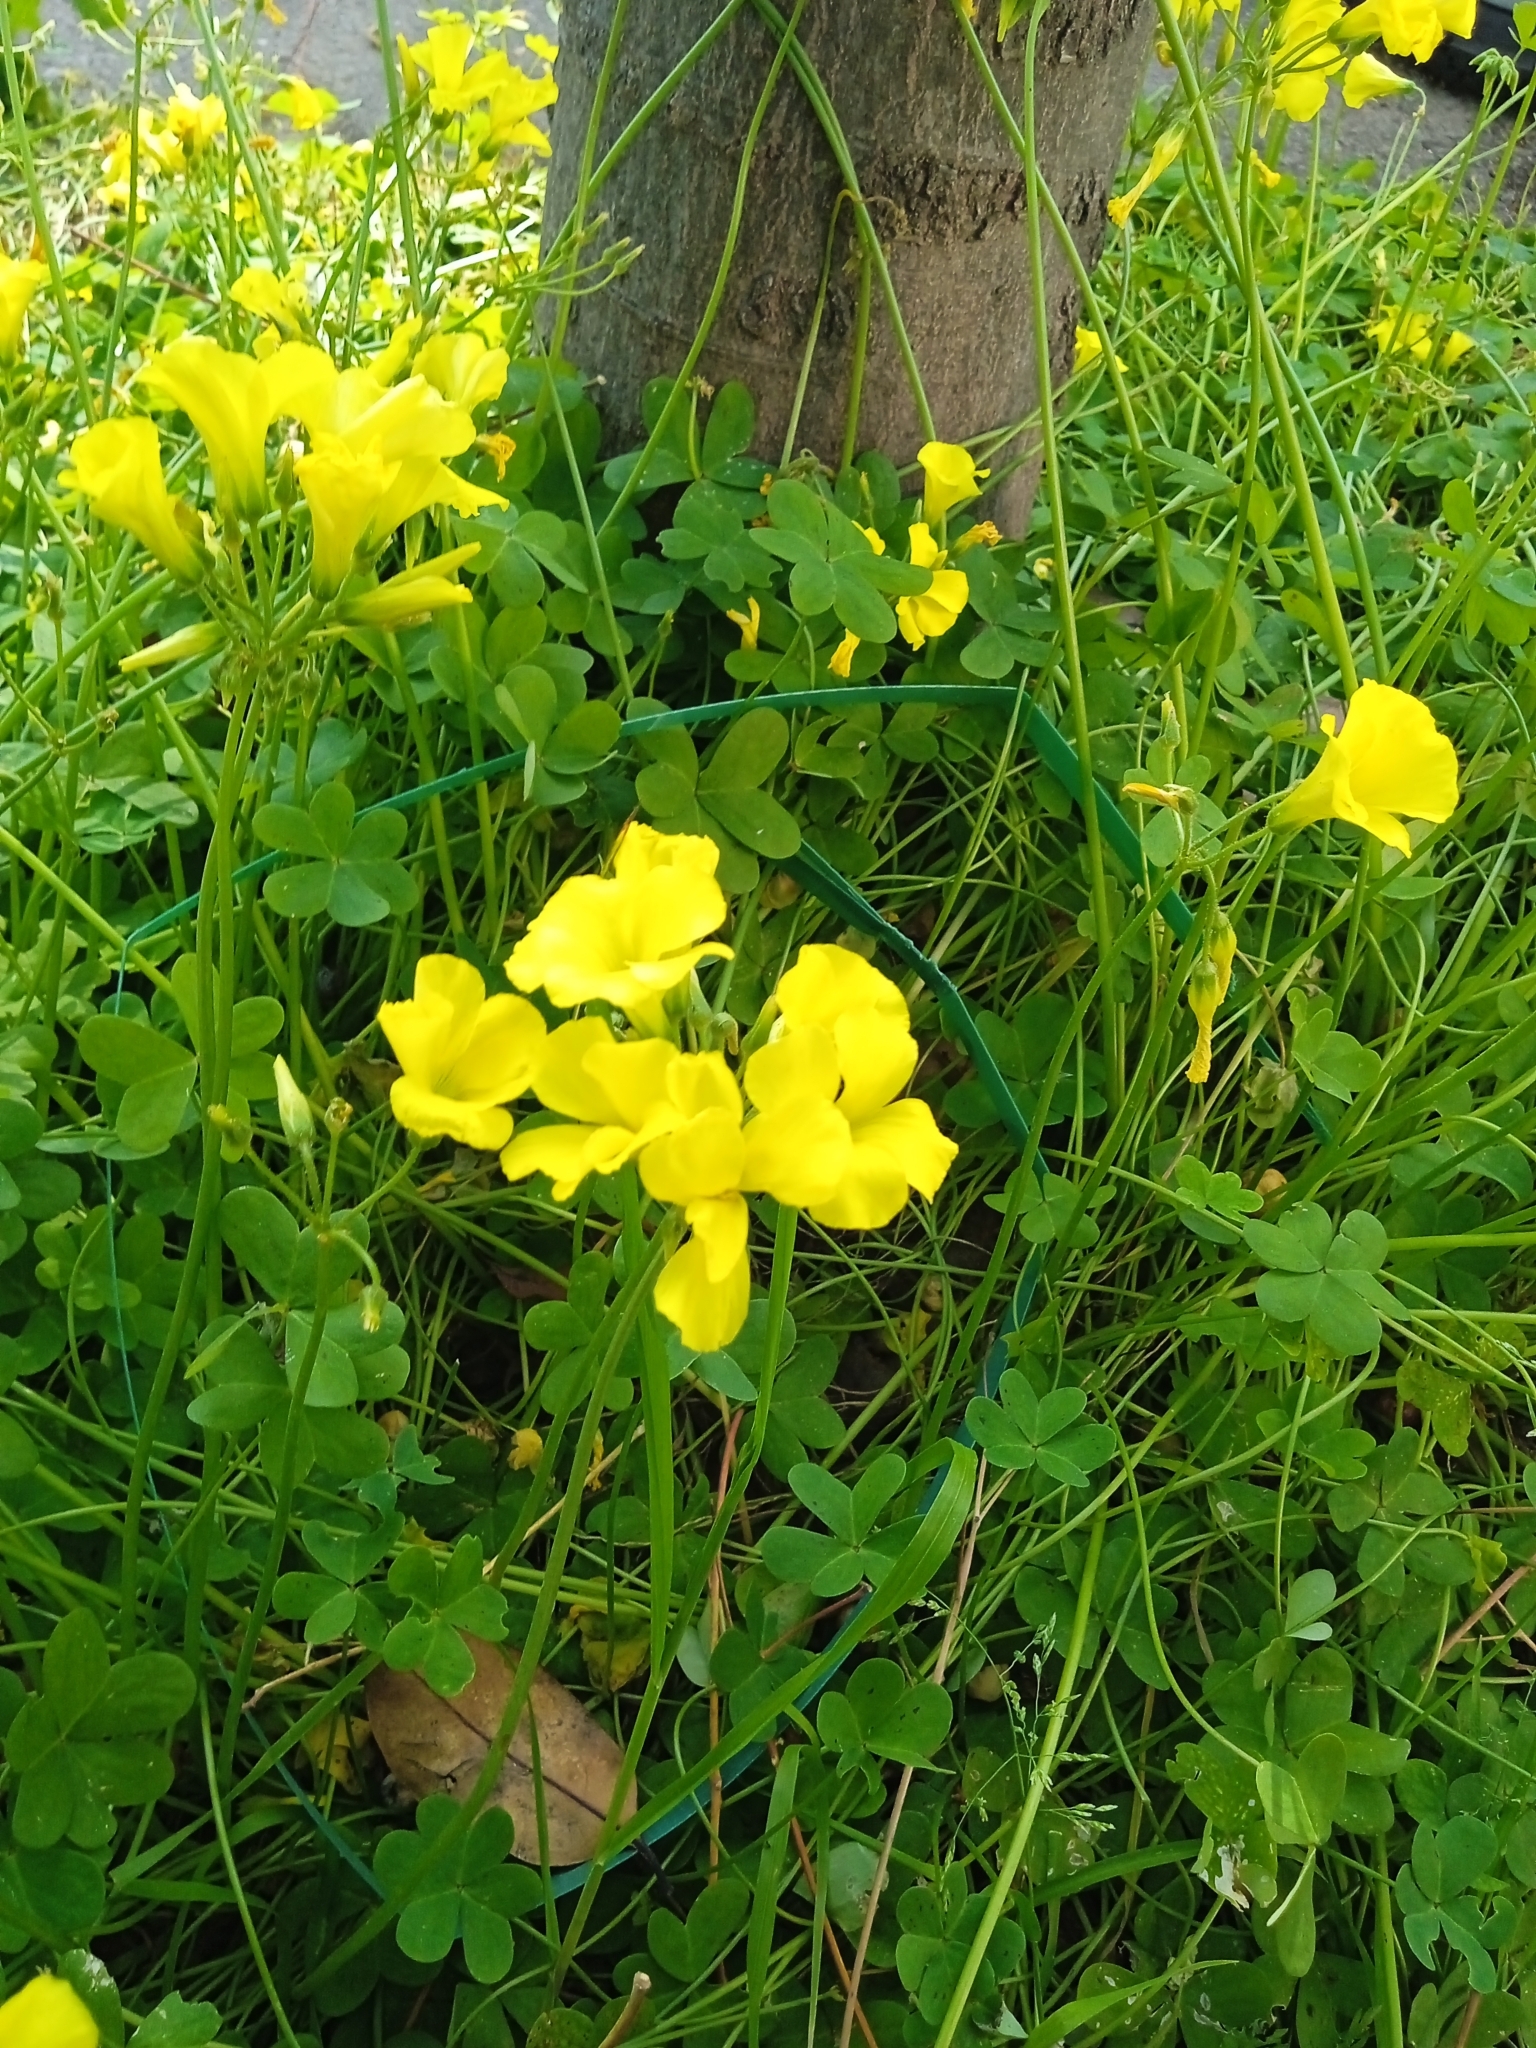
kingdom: Plantae
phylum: Tracheophyta
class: Magnoliopsida
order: Oxalidales
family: Oxalidaceae
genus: Oxalis
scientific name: Oxalis pes-caprae
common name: Bermuda-buttercup
